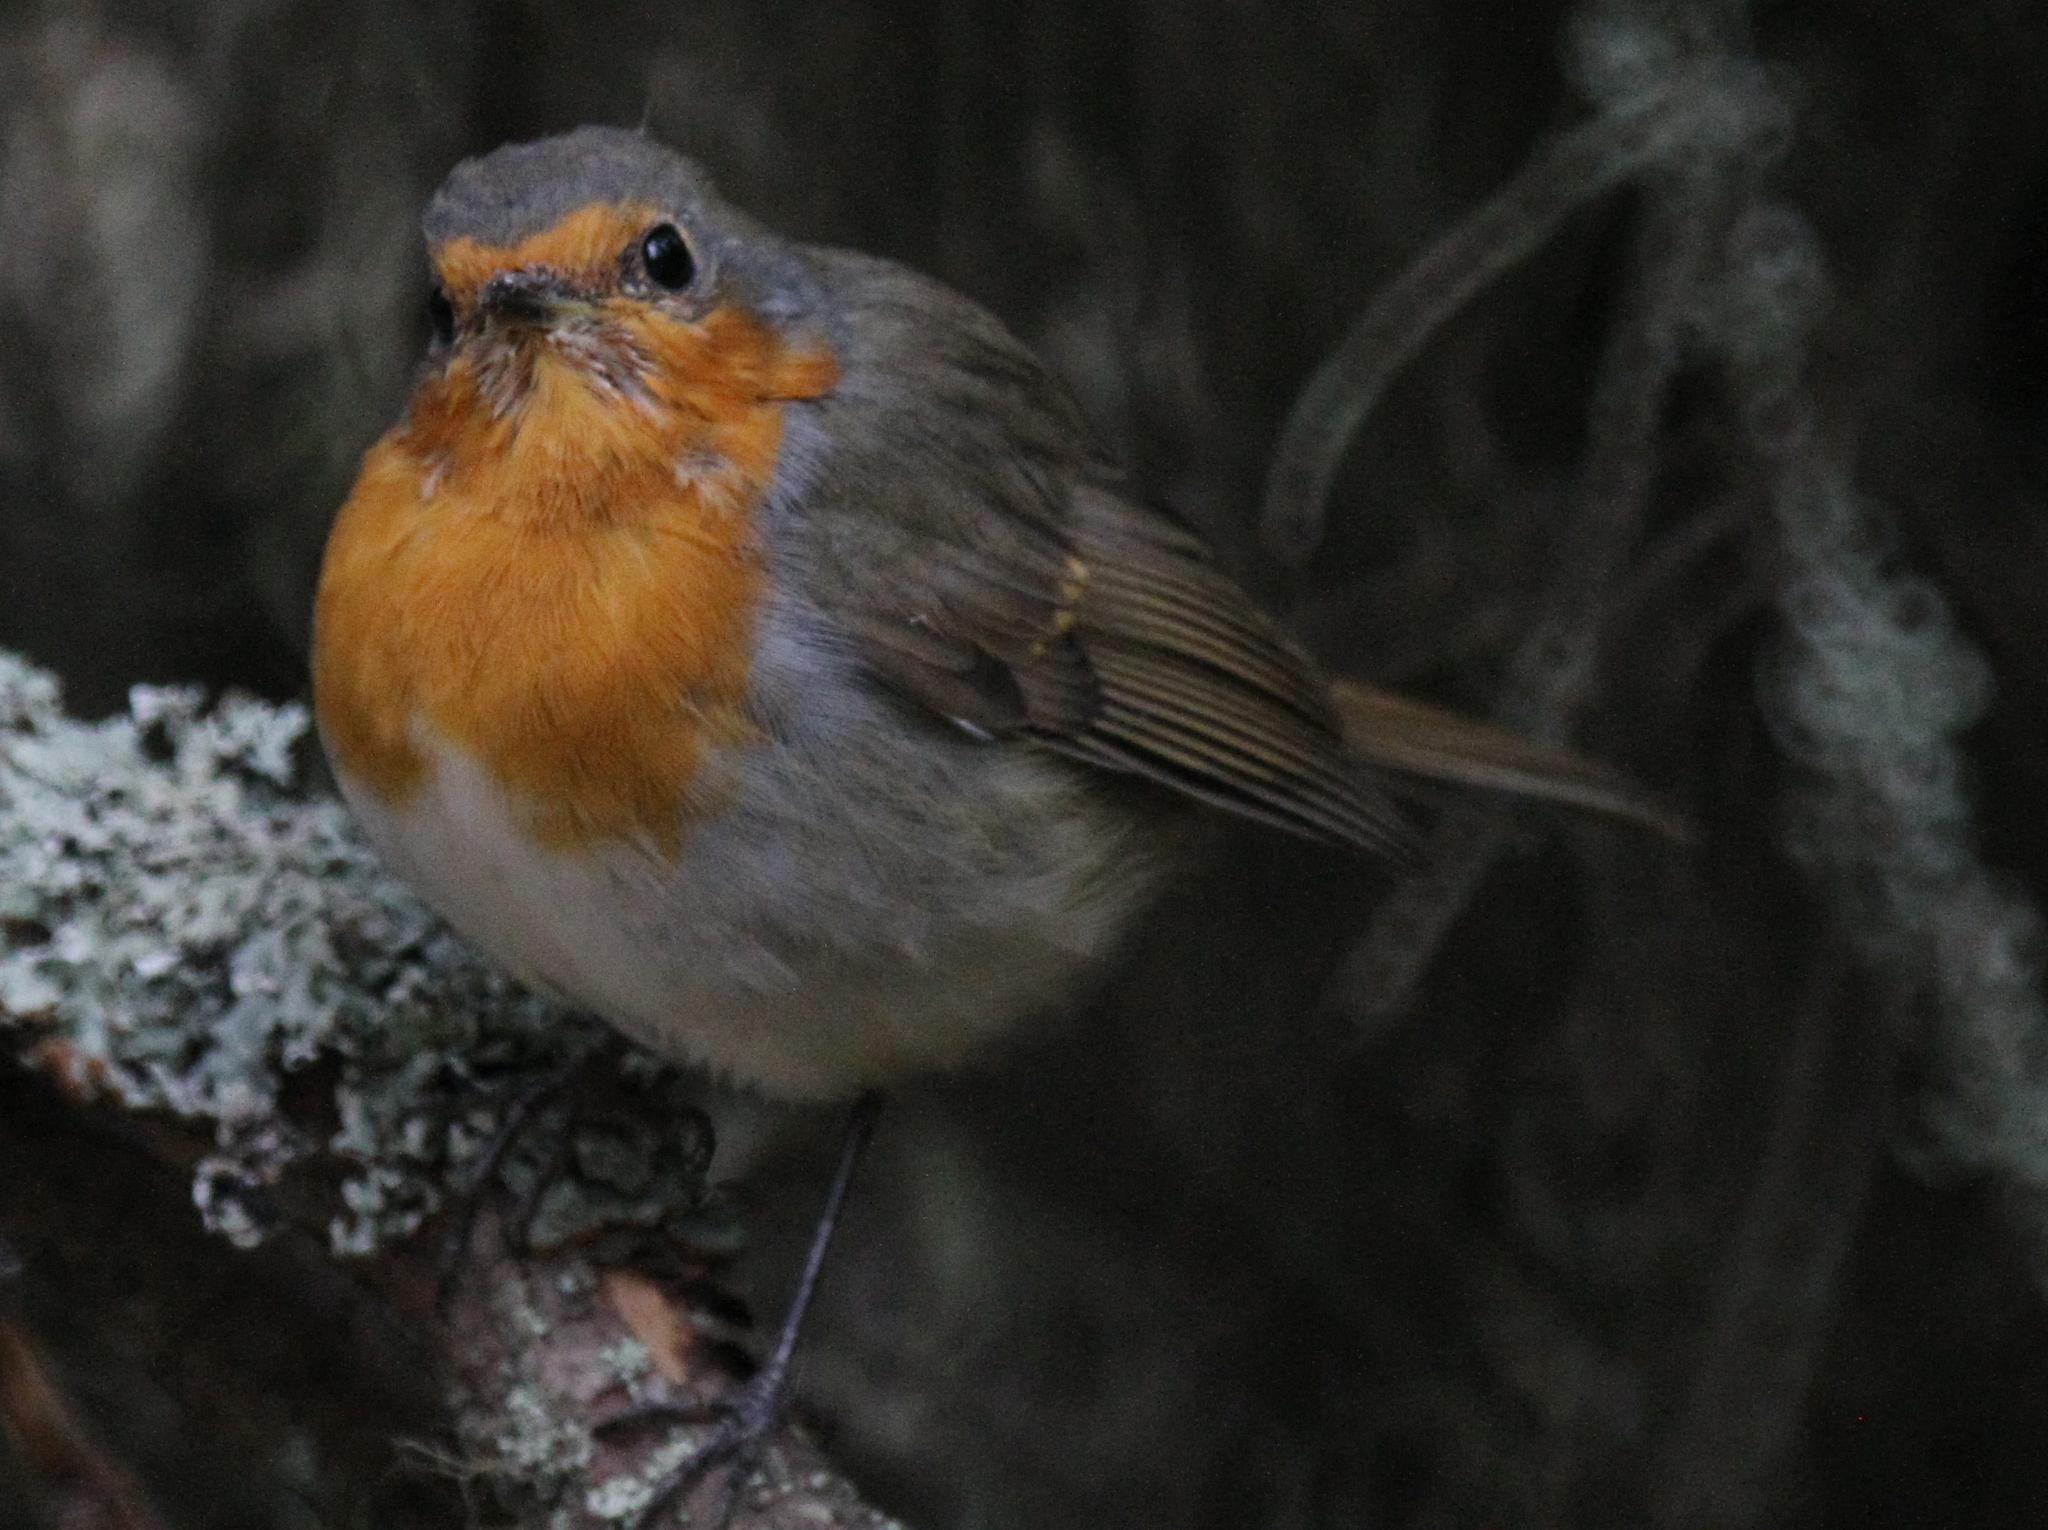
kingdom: Animalia
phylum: Chordata
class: Aves
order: Passeriformes
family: Muscicapidae
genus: Erithacus
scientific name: Erithacus rubecula
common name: European robin
